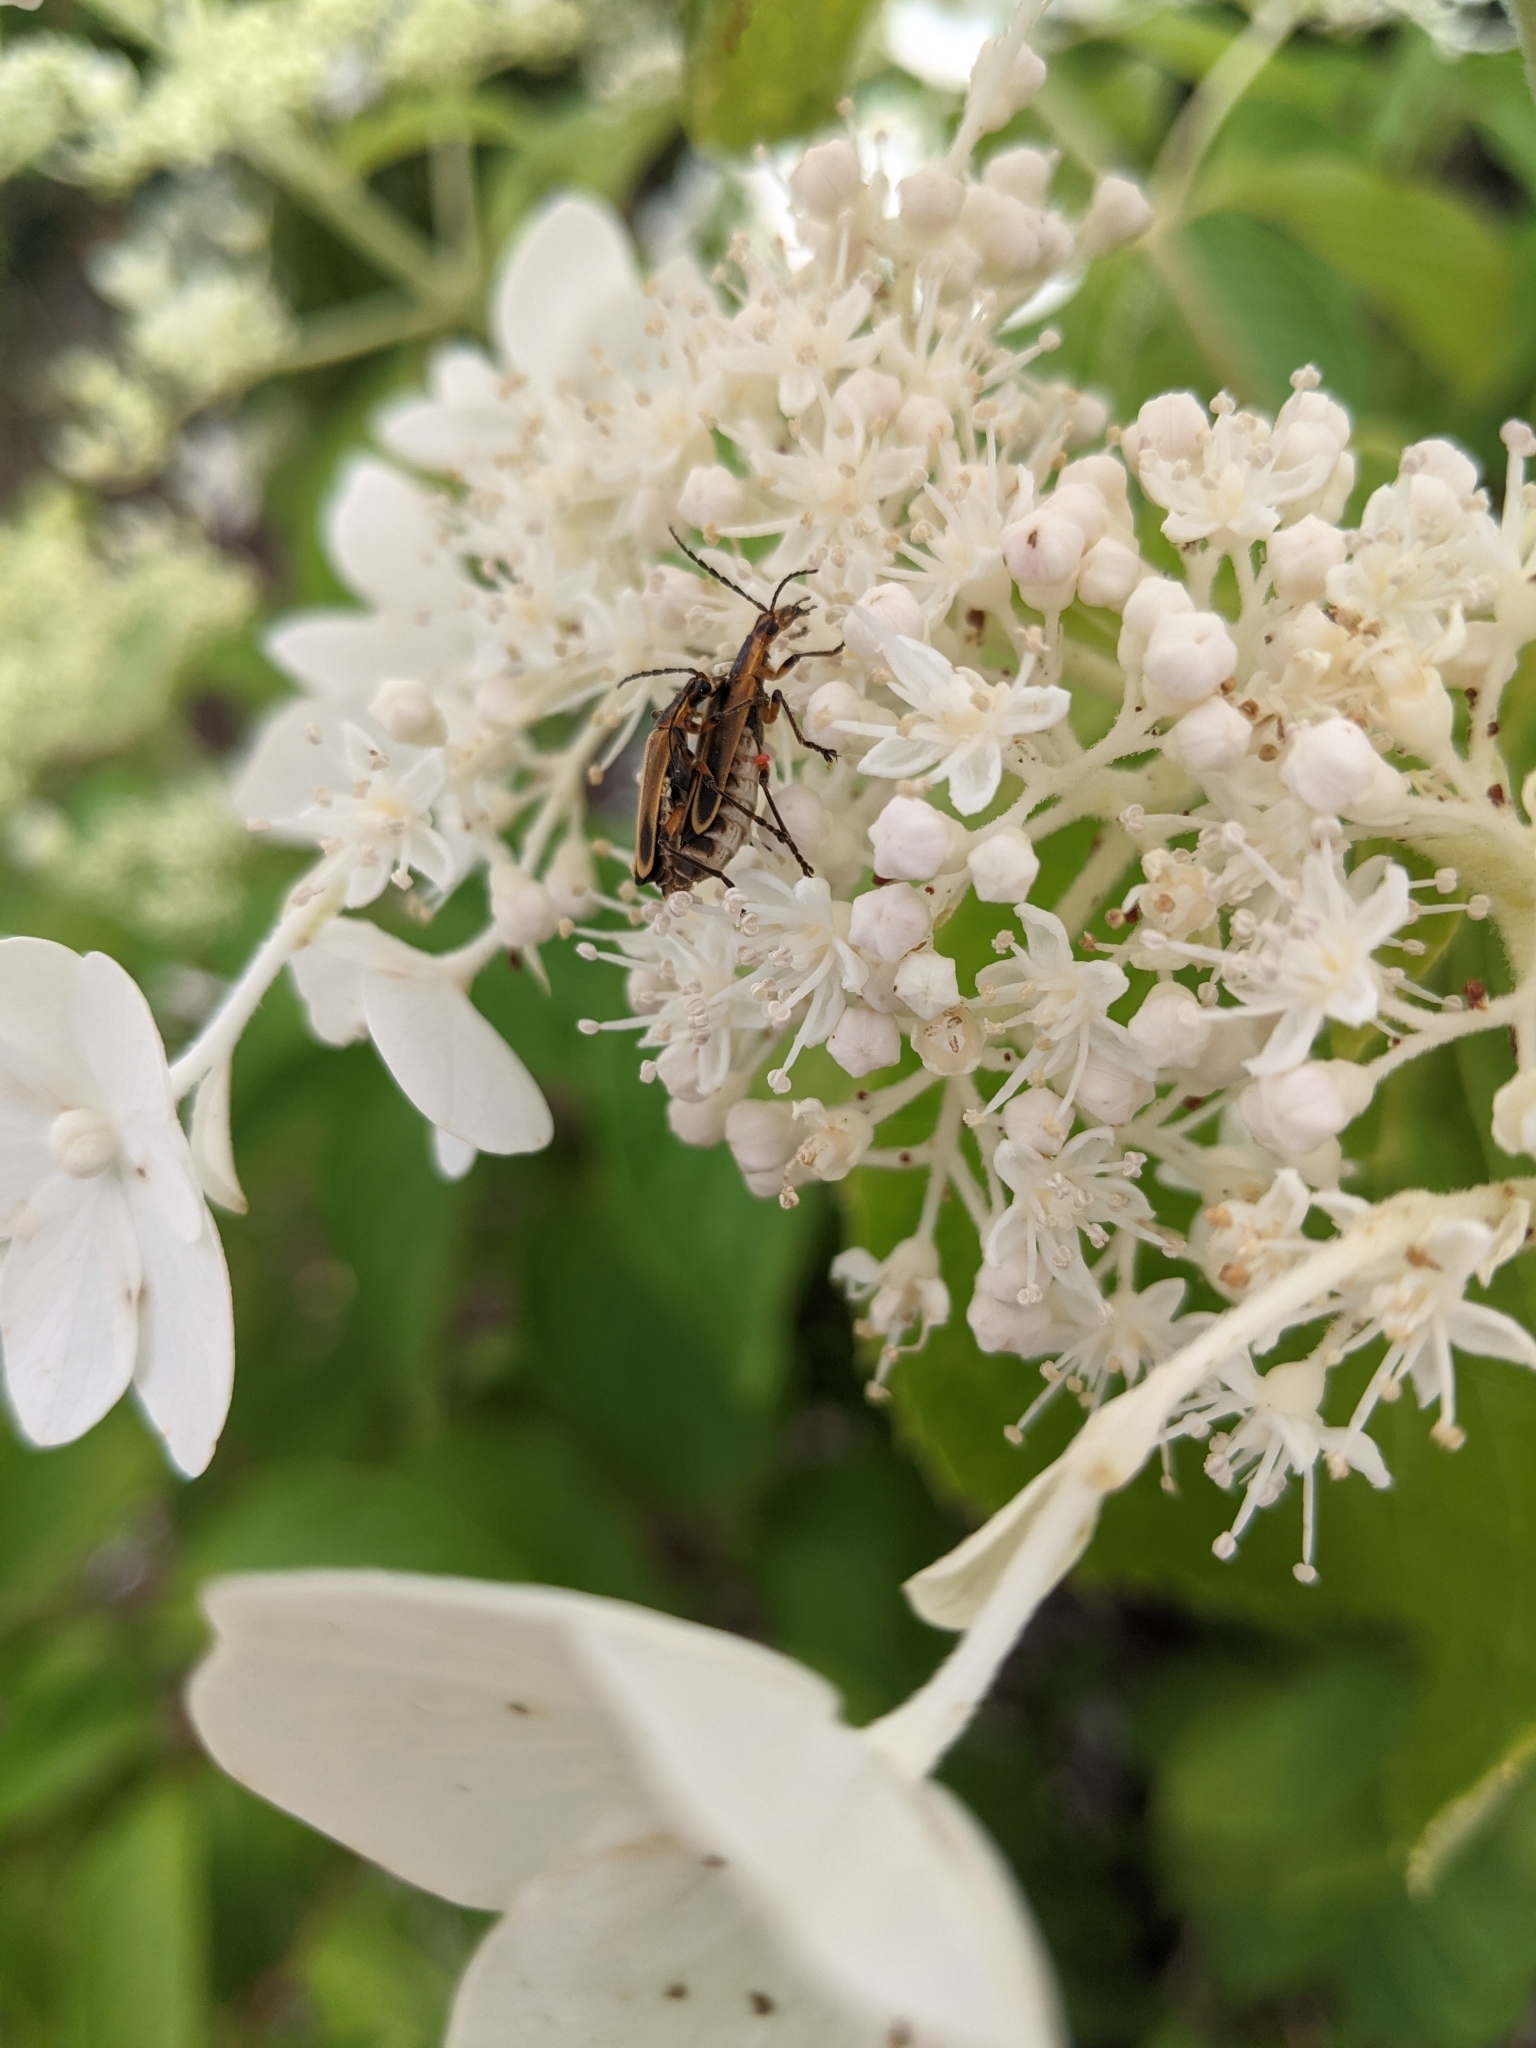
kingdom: Animalia
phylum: Arthropoda
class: Insecta
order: Coleoptera
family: Cantharidae
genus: Chauliognathus
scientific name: Chauliognathus marginatus
